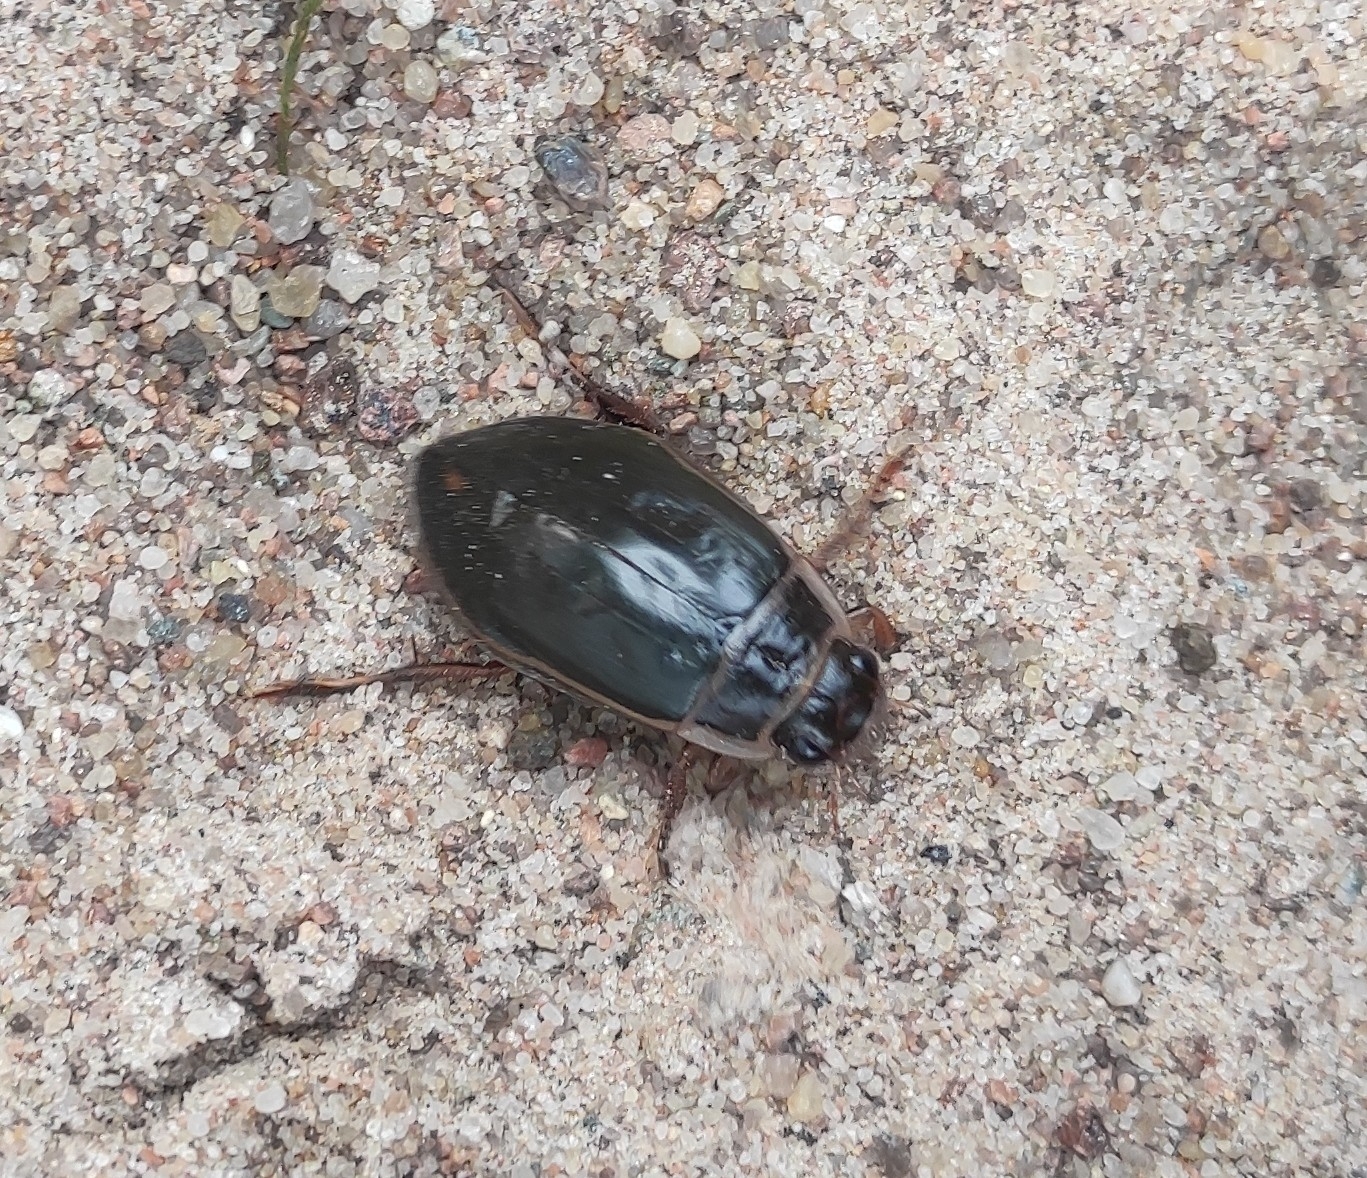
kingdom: Animalia
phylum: Arthropoda
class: Insecta
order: Coleoptera
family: Dytiscidae
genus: Dytiscus
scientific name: Dytiscus marginalis
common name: Great water beetle
